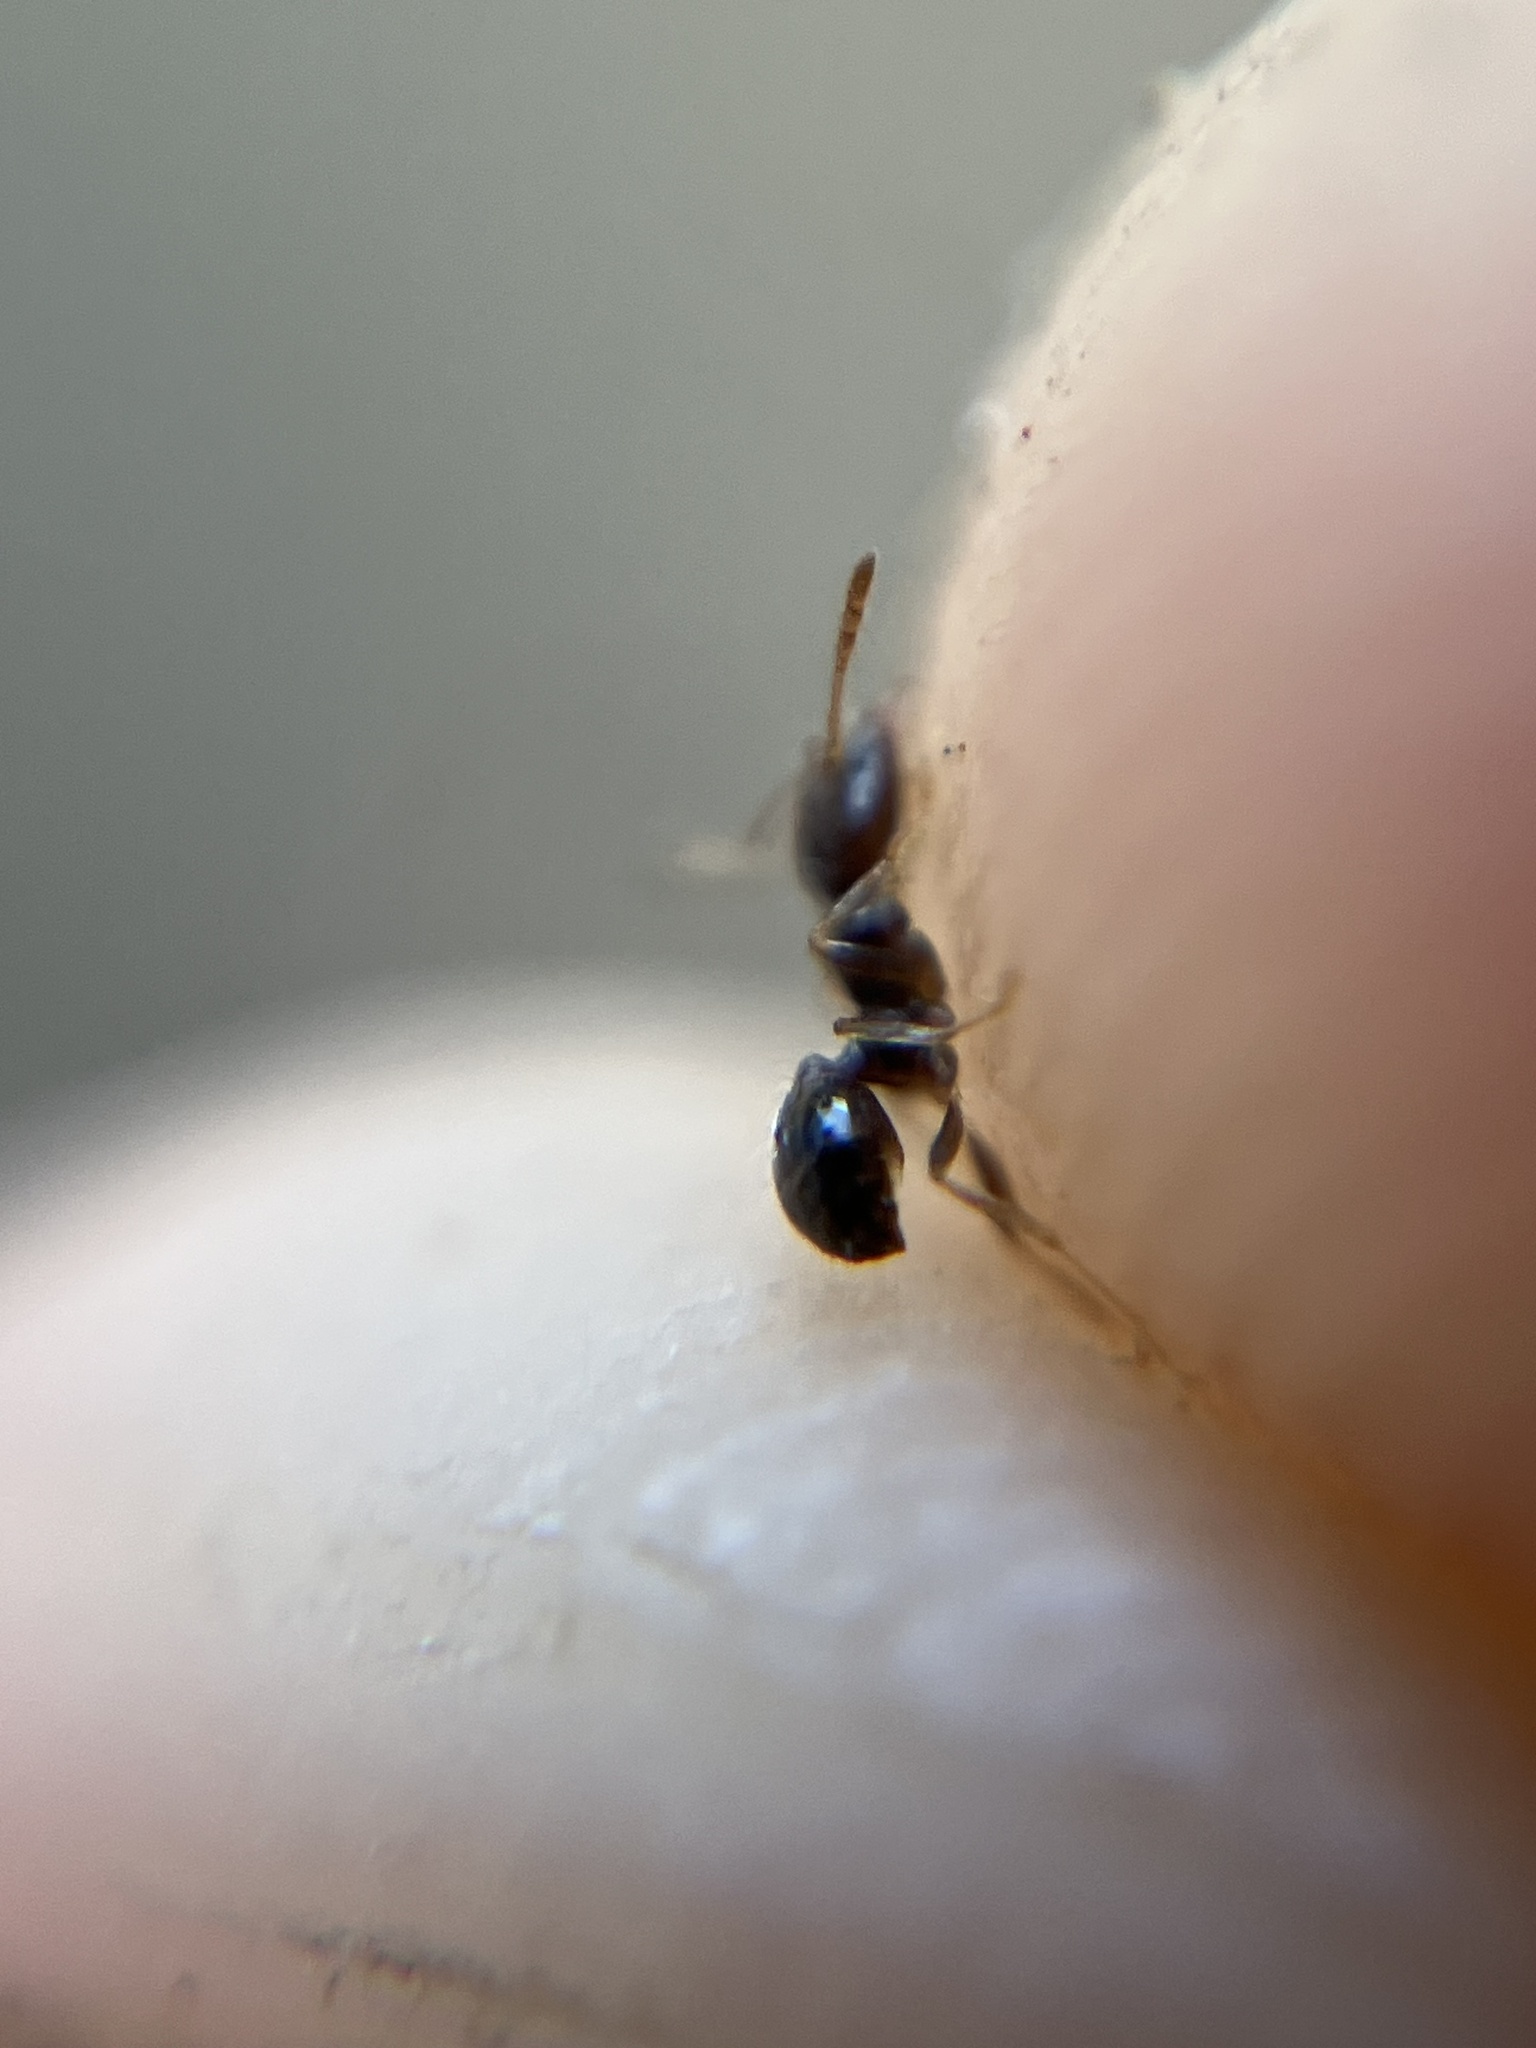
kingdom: Animalia
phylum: Arthropoda
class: Insecta
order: Hymenoptera
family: Formicidae
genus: Trichomyrmex
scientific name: Trichomyrmex mayri
